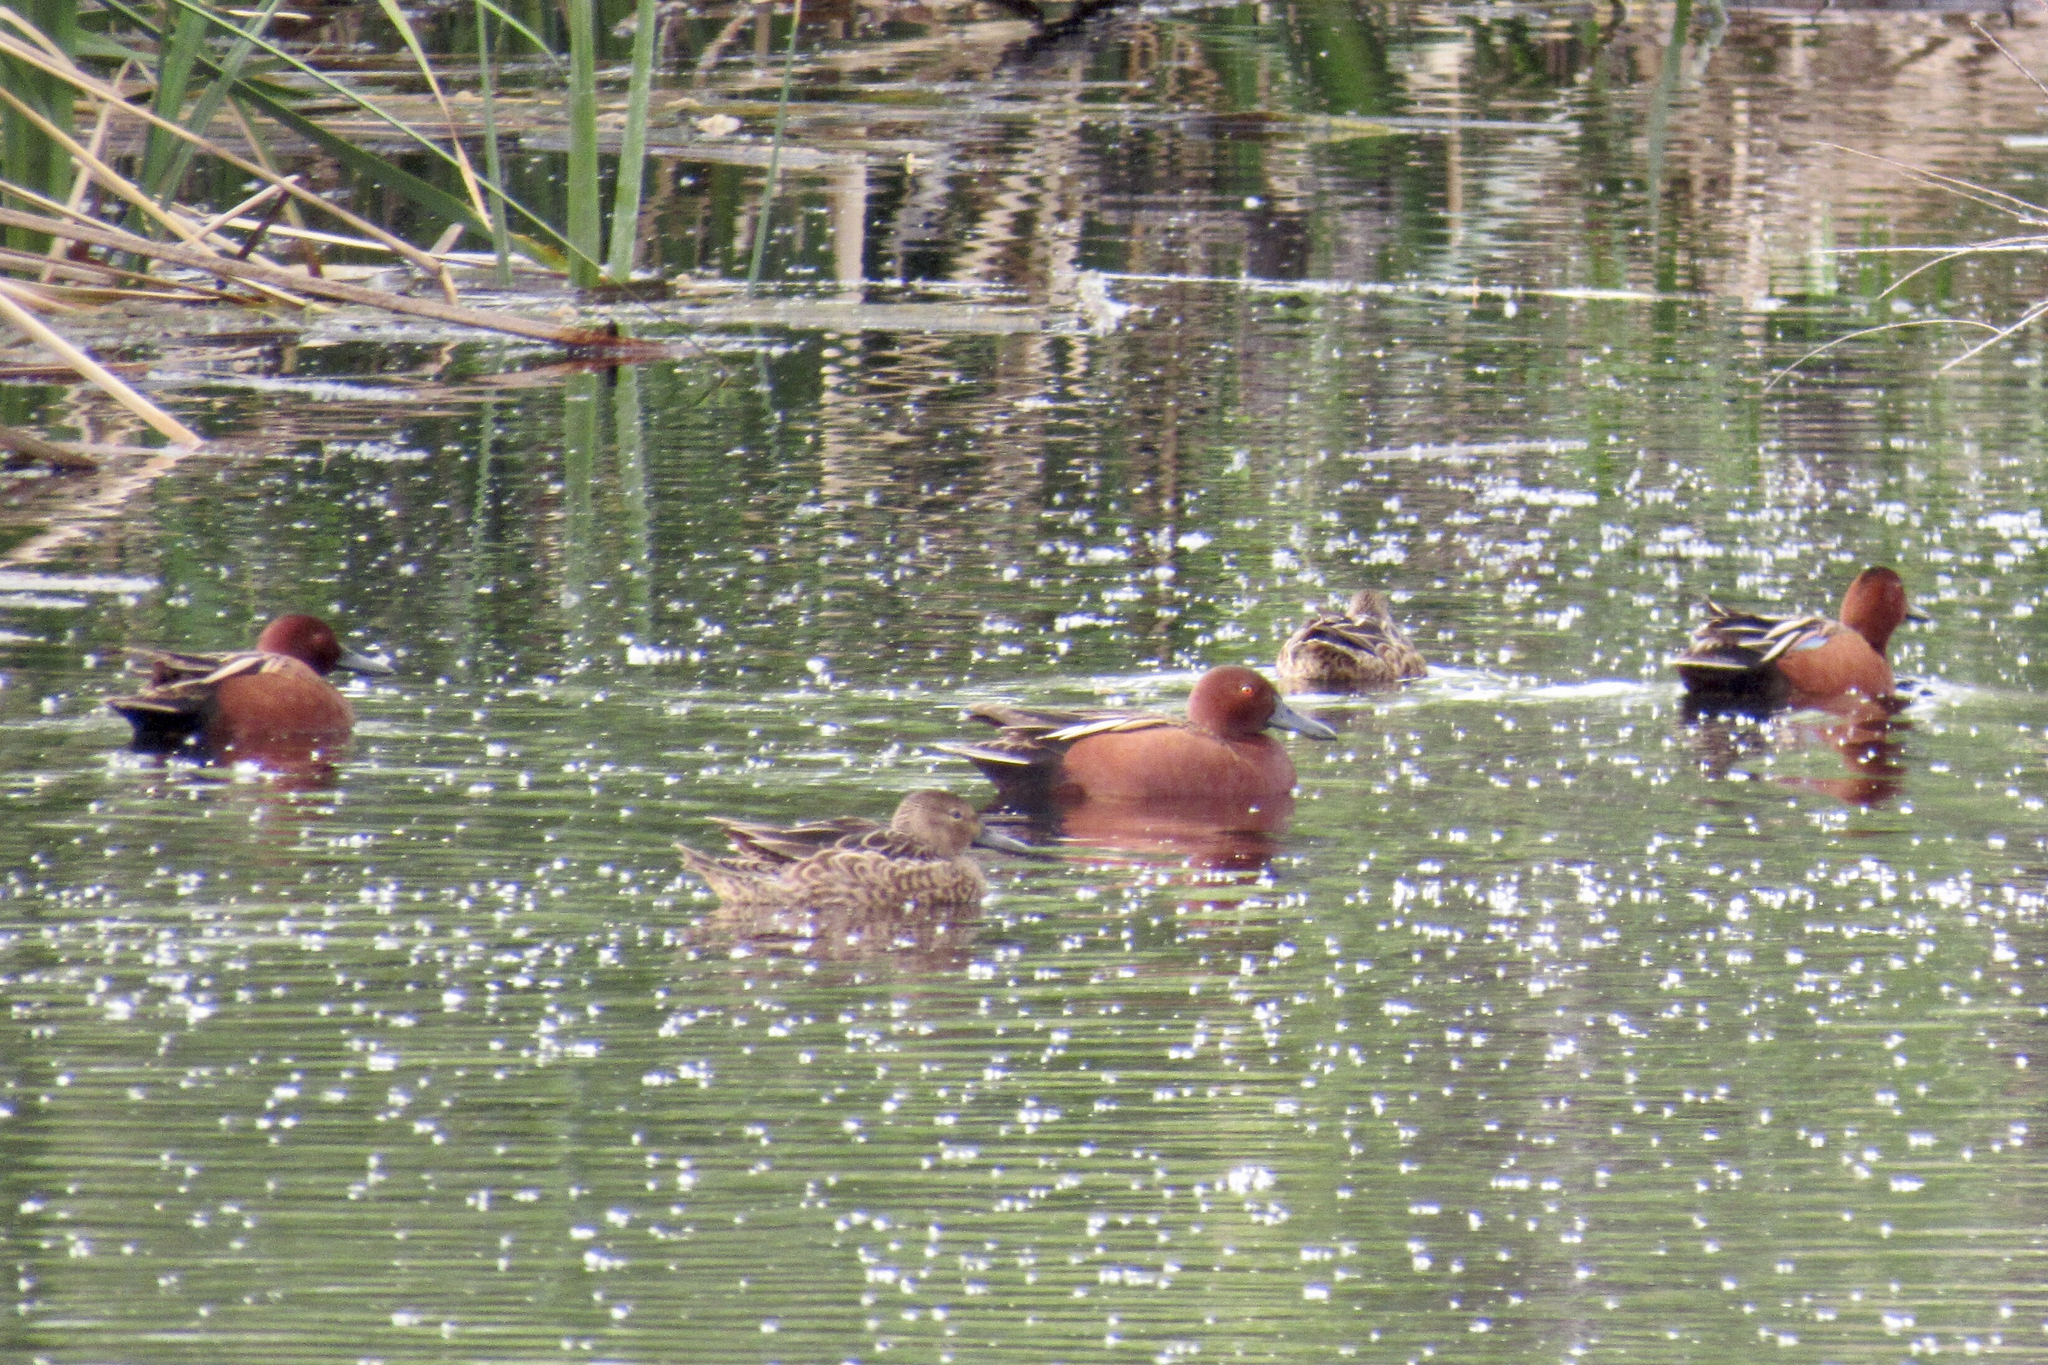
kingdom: Animalia
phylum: Chordata
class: Aves
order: Anseriformes
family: Anatidae
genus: Spatula
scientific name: Spatula cyanoptera
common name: Cinnamon teal
